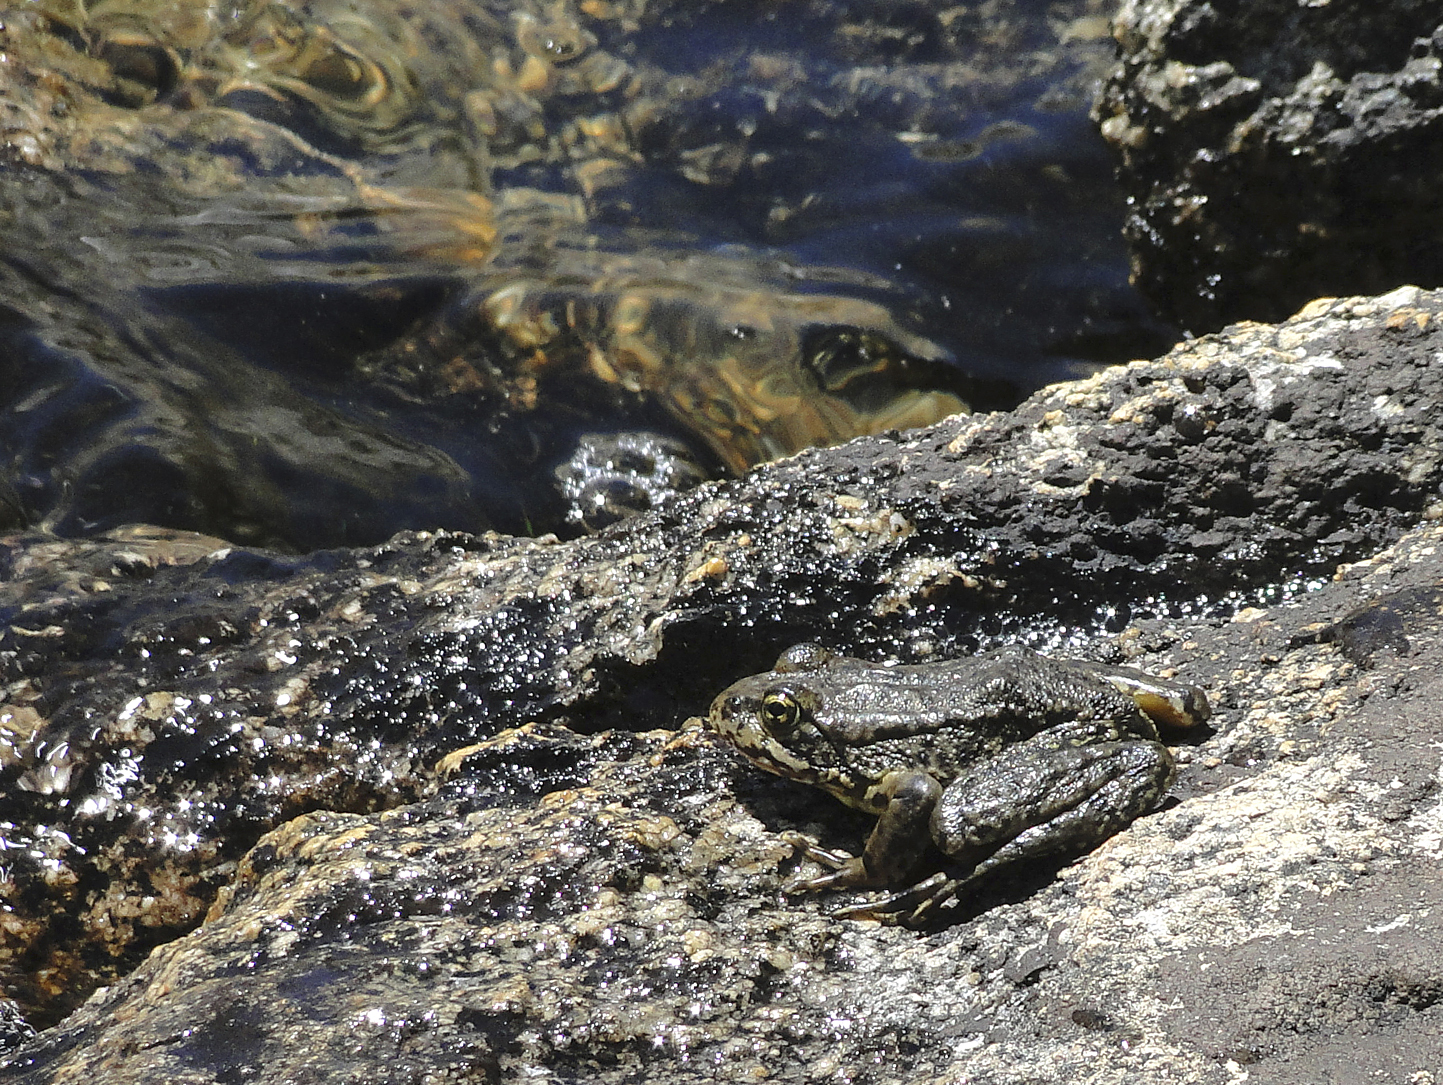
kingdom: Animalia
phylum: Chordata
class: Amphibia
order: Anura
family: Ranidae
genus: Rana
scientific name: Rana sierrae
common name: Sierra nevada yellow-legged frog
